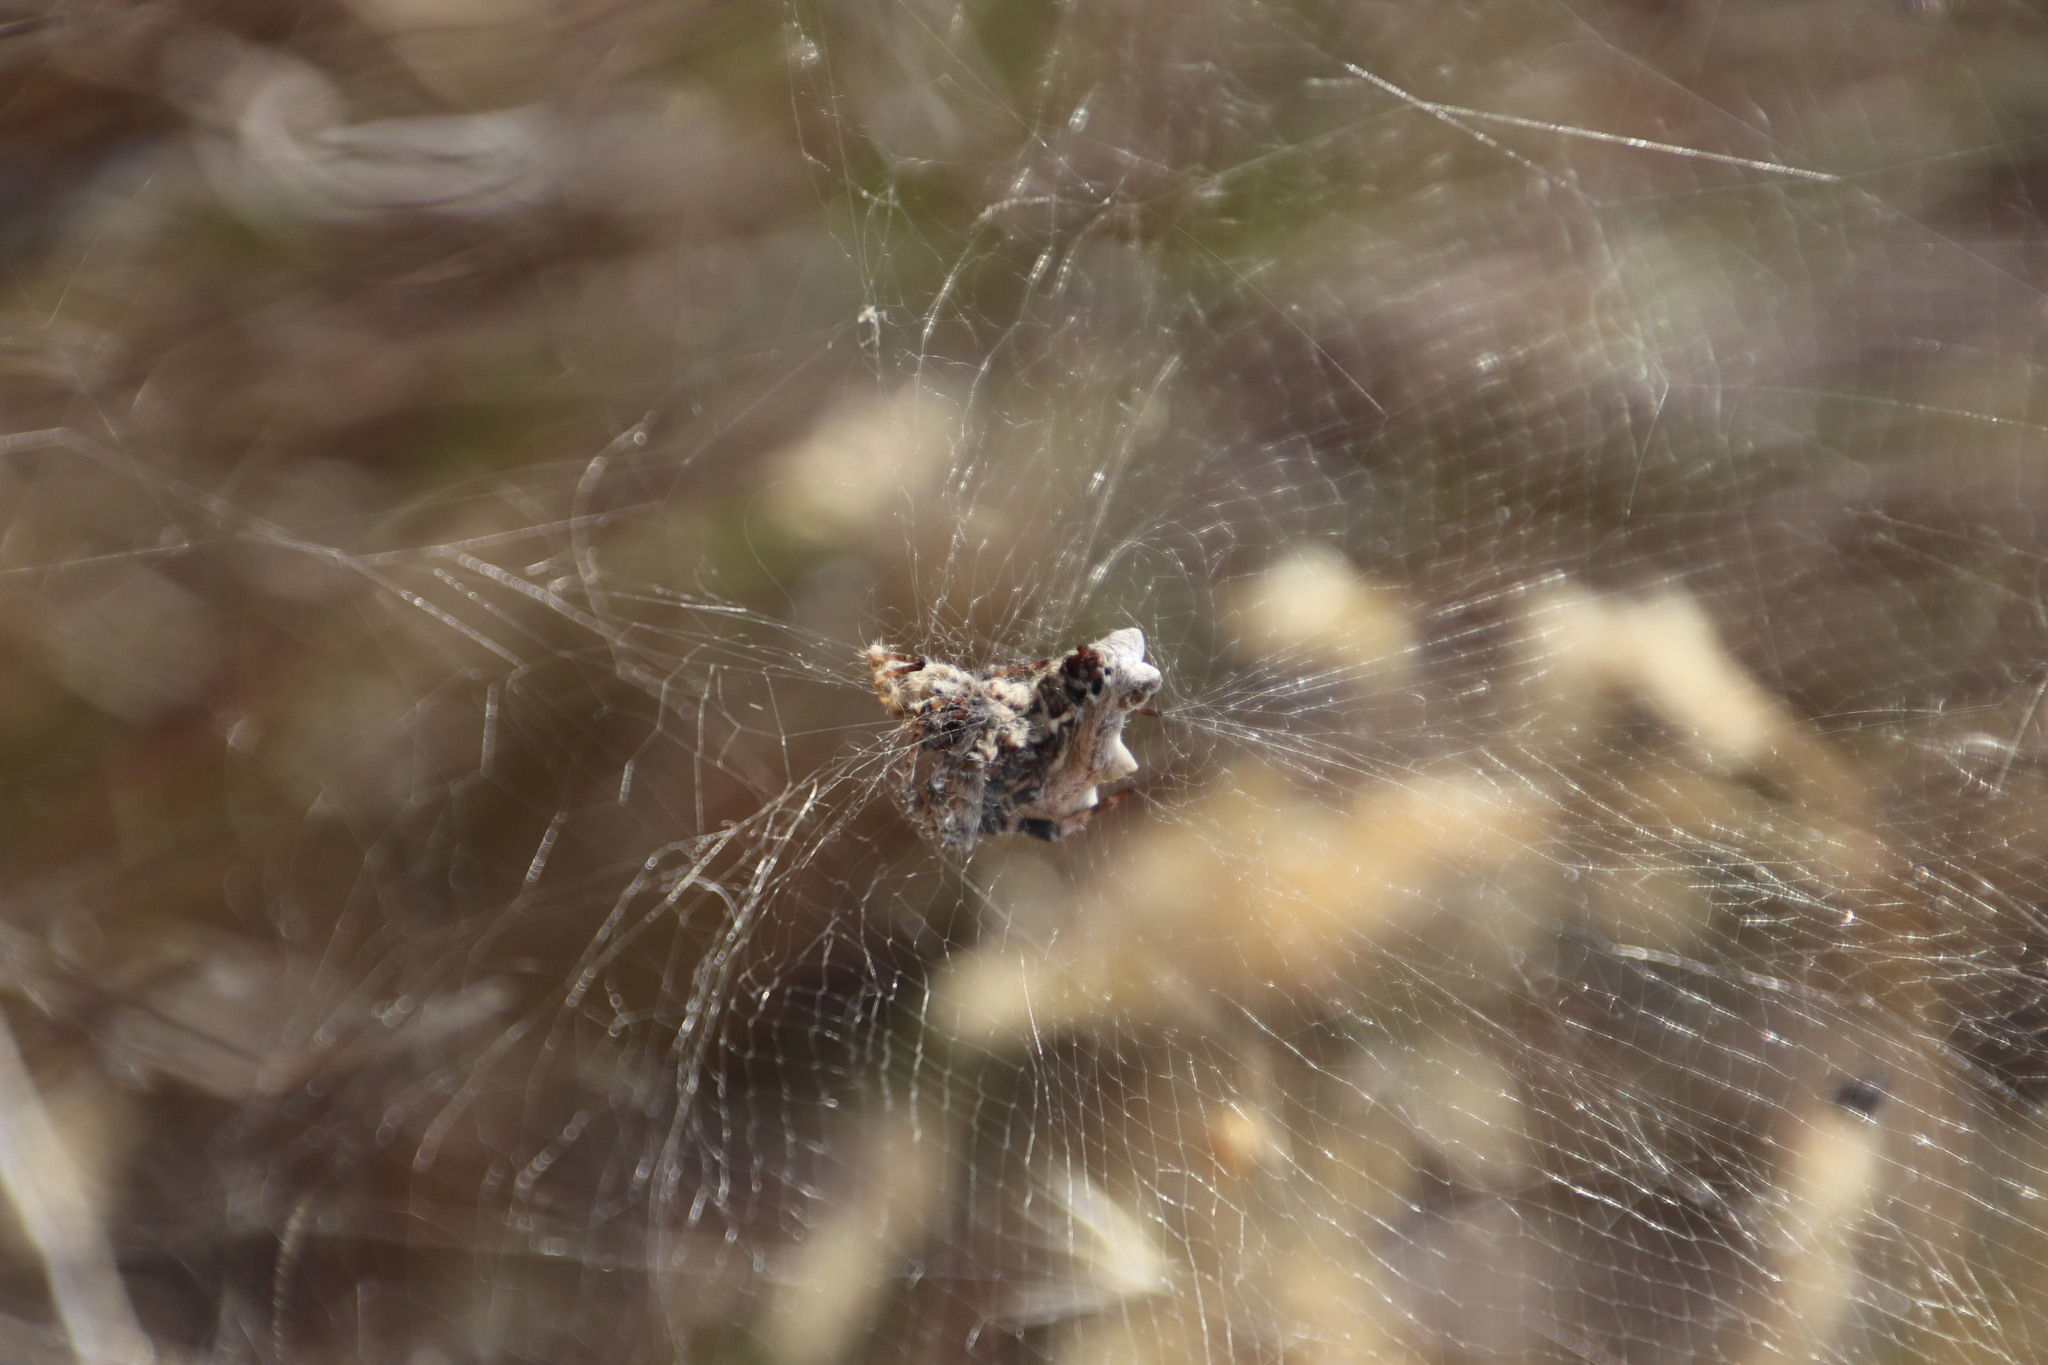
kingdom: Animalia
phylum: Arthropoda
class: Arachnida
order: Araneae
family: Araneidae
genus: Cyrtophora
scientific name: Cyrtophora citricola
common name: Orb weavers
